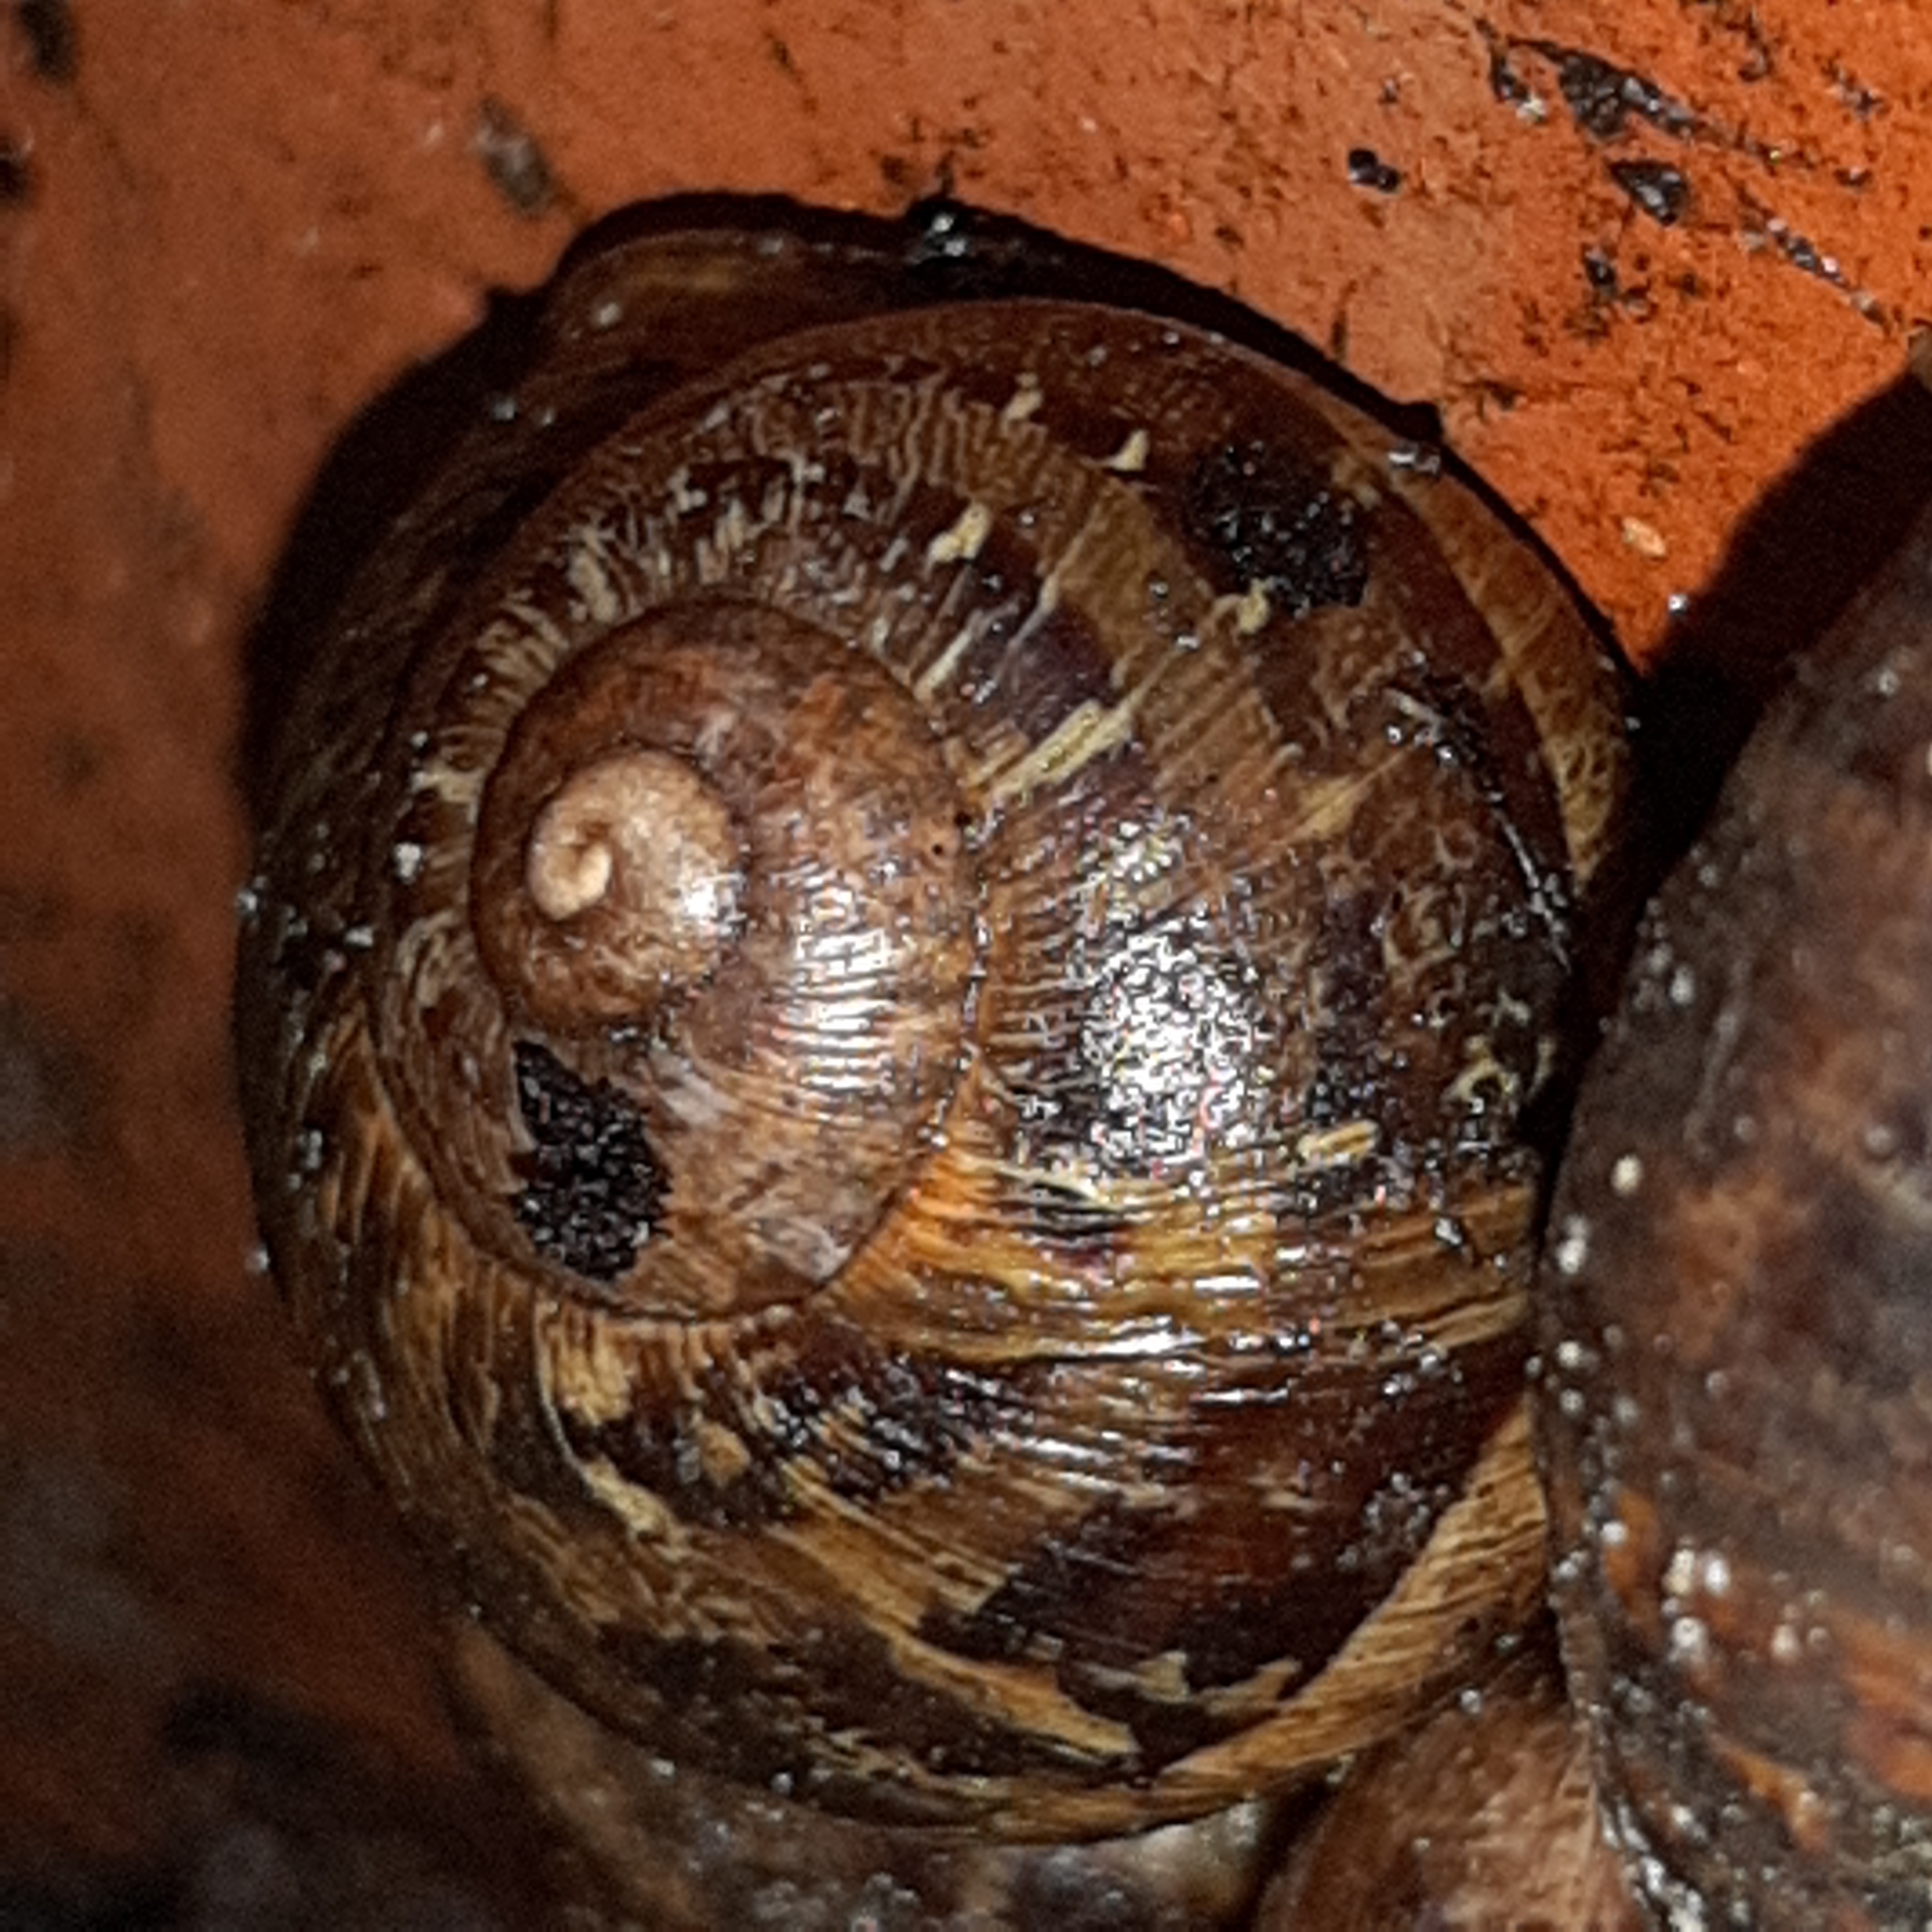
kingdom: Animalia
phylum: Mollusca
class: Gastropoda
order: Stylommatophora
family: Helicidae
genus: Cornu
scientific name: Cornu aspersum
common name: Brown garden snail
